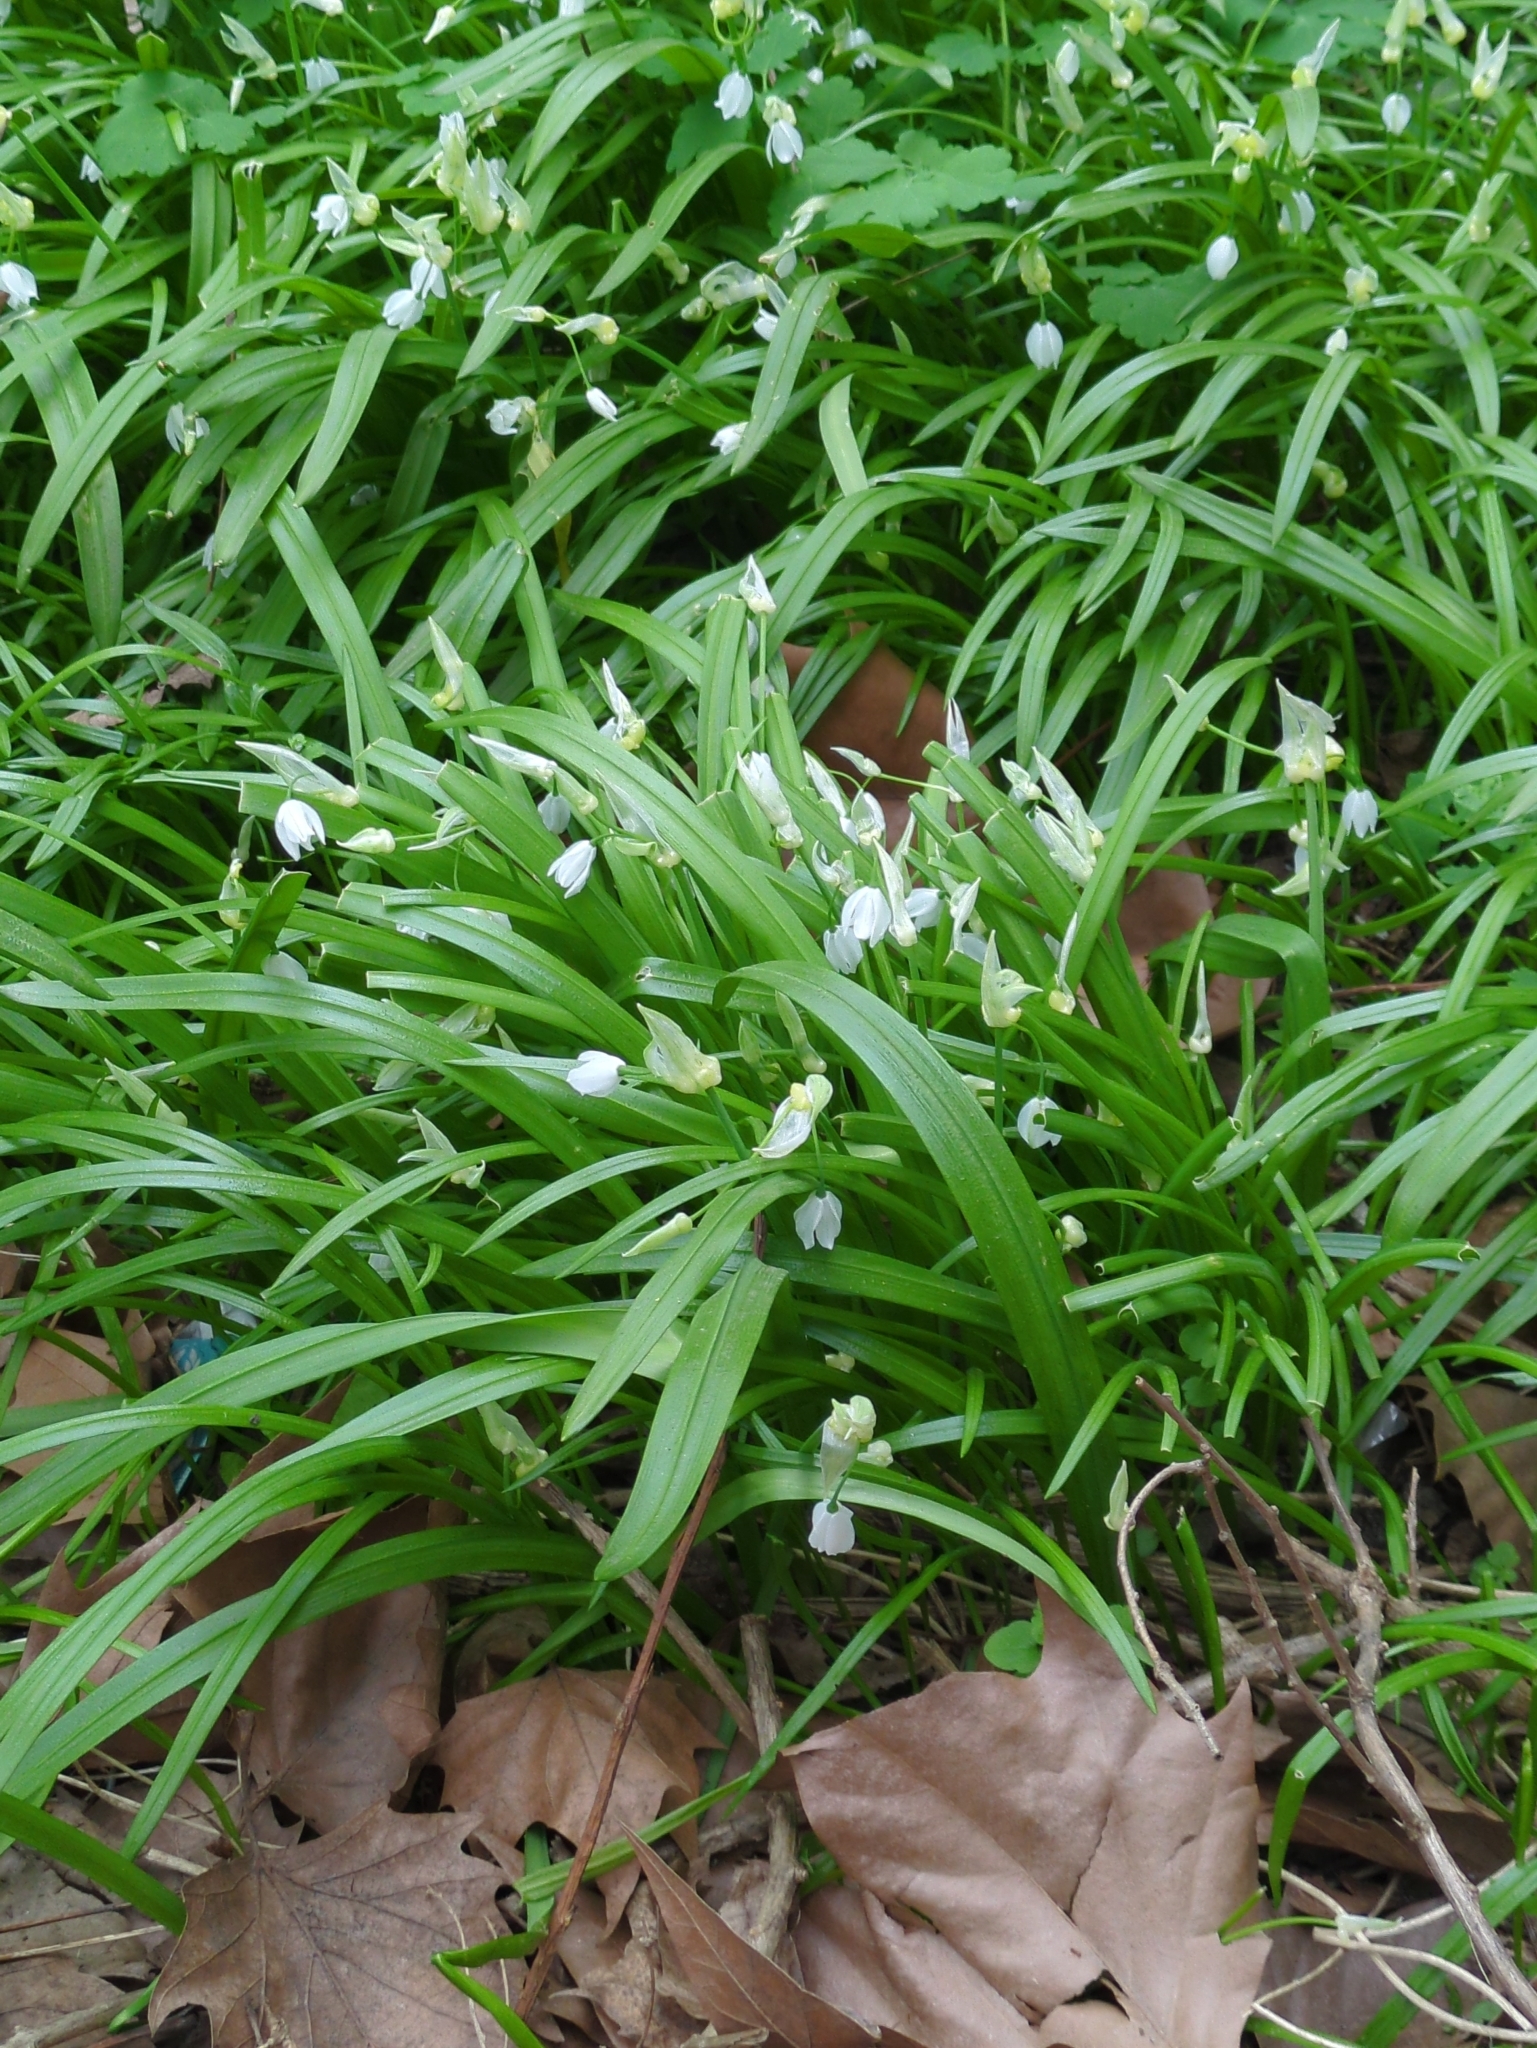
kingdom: Plantae
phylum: Tracheophyta
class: Liliopsida
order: Asparagales
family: Amaryllidaceae
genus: Allium
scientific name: Allium paradoxum
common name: Few-flowered garlic
